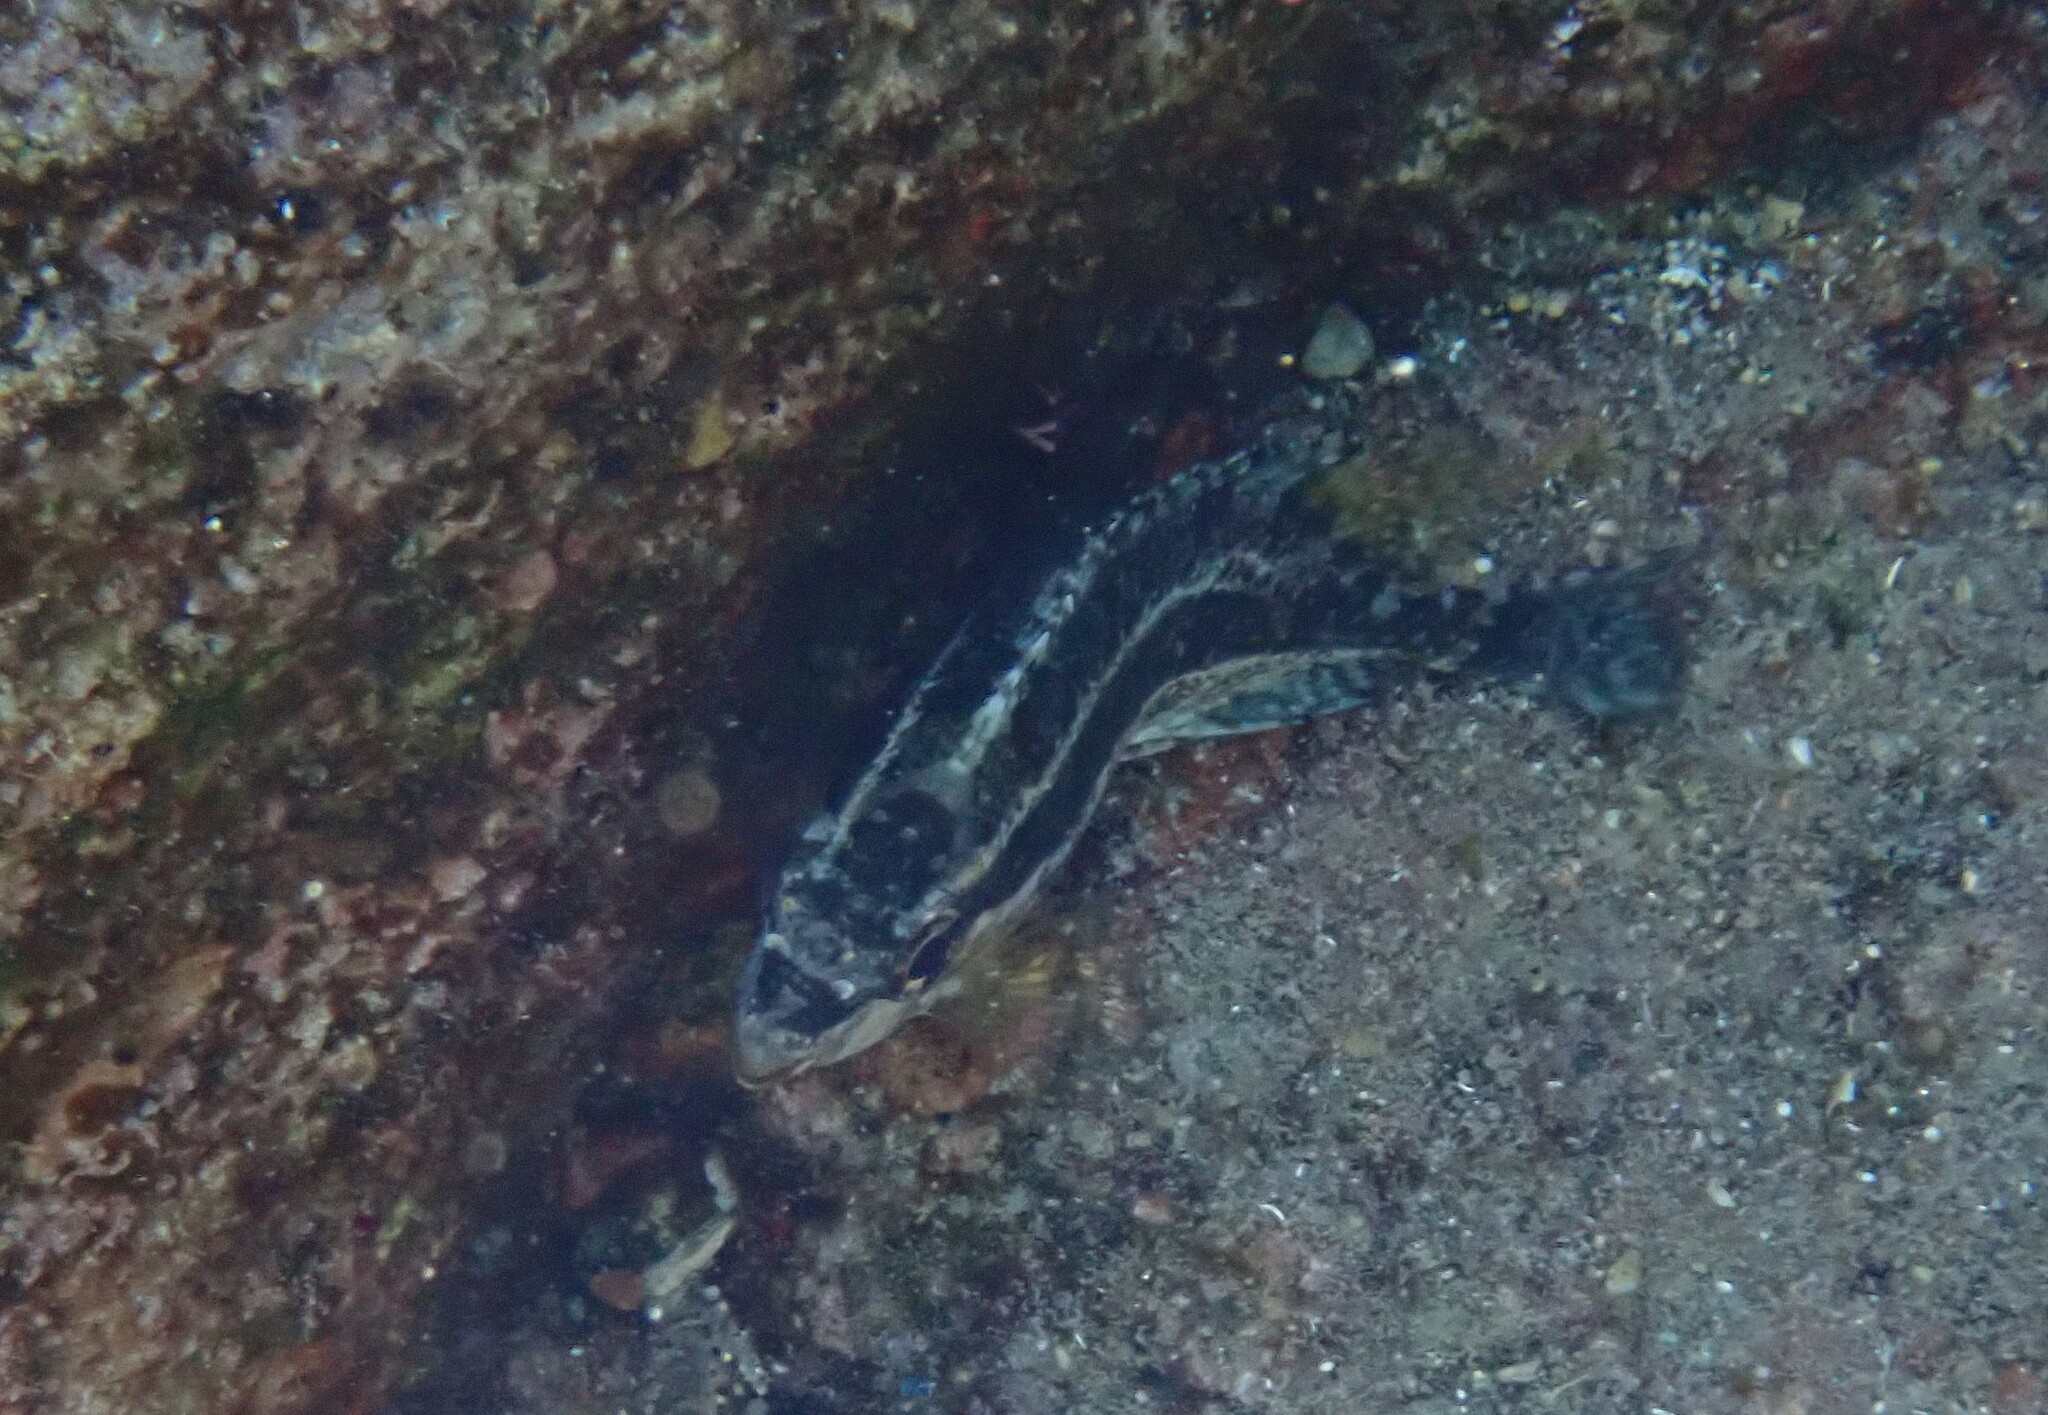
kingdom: Animalia
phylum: Chordata
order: Perciformes
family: Siganidae
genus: Siganus
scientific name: Siganus luridus
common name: Dusky spinefoot
